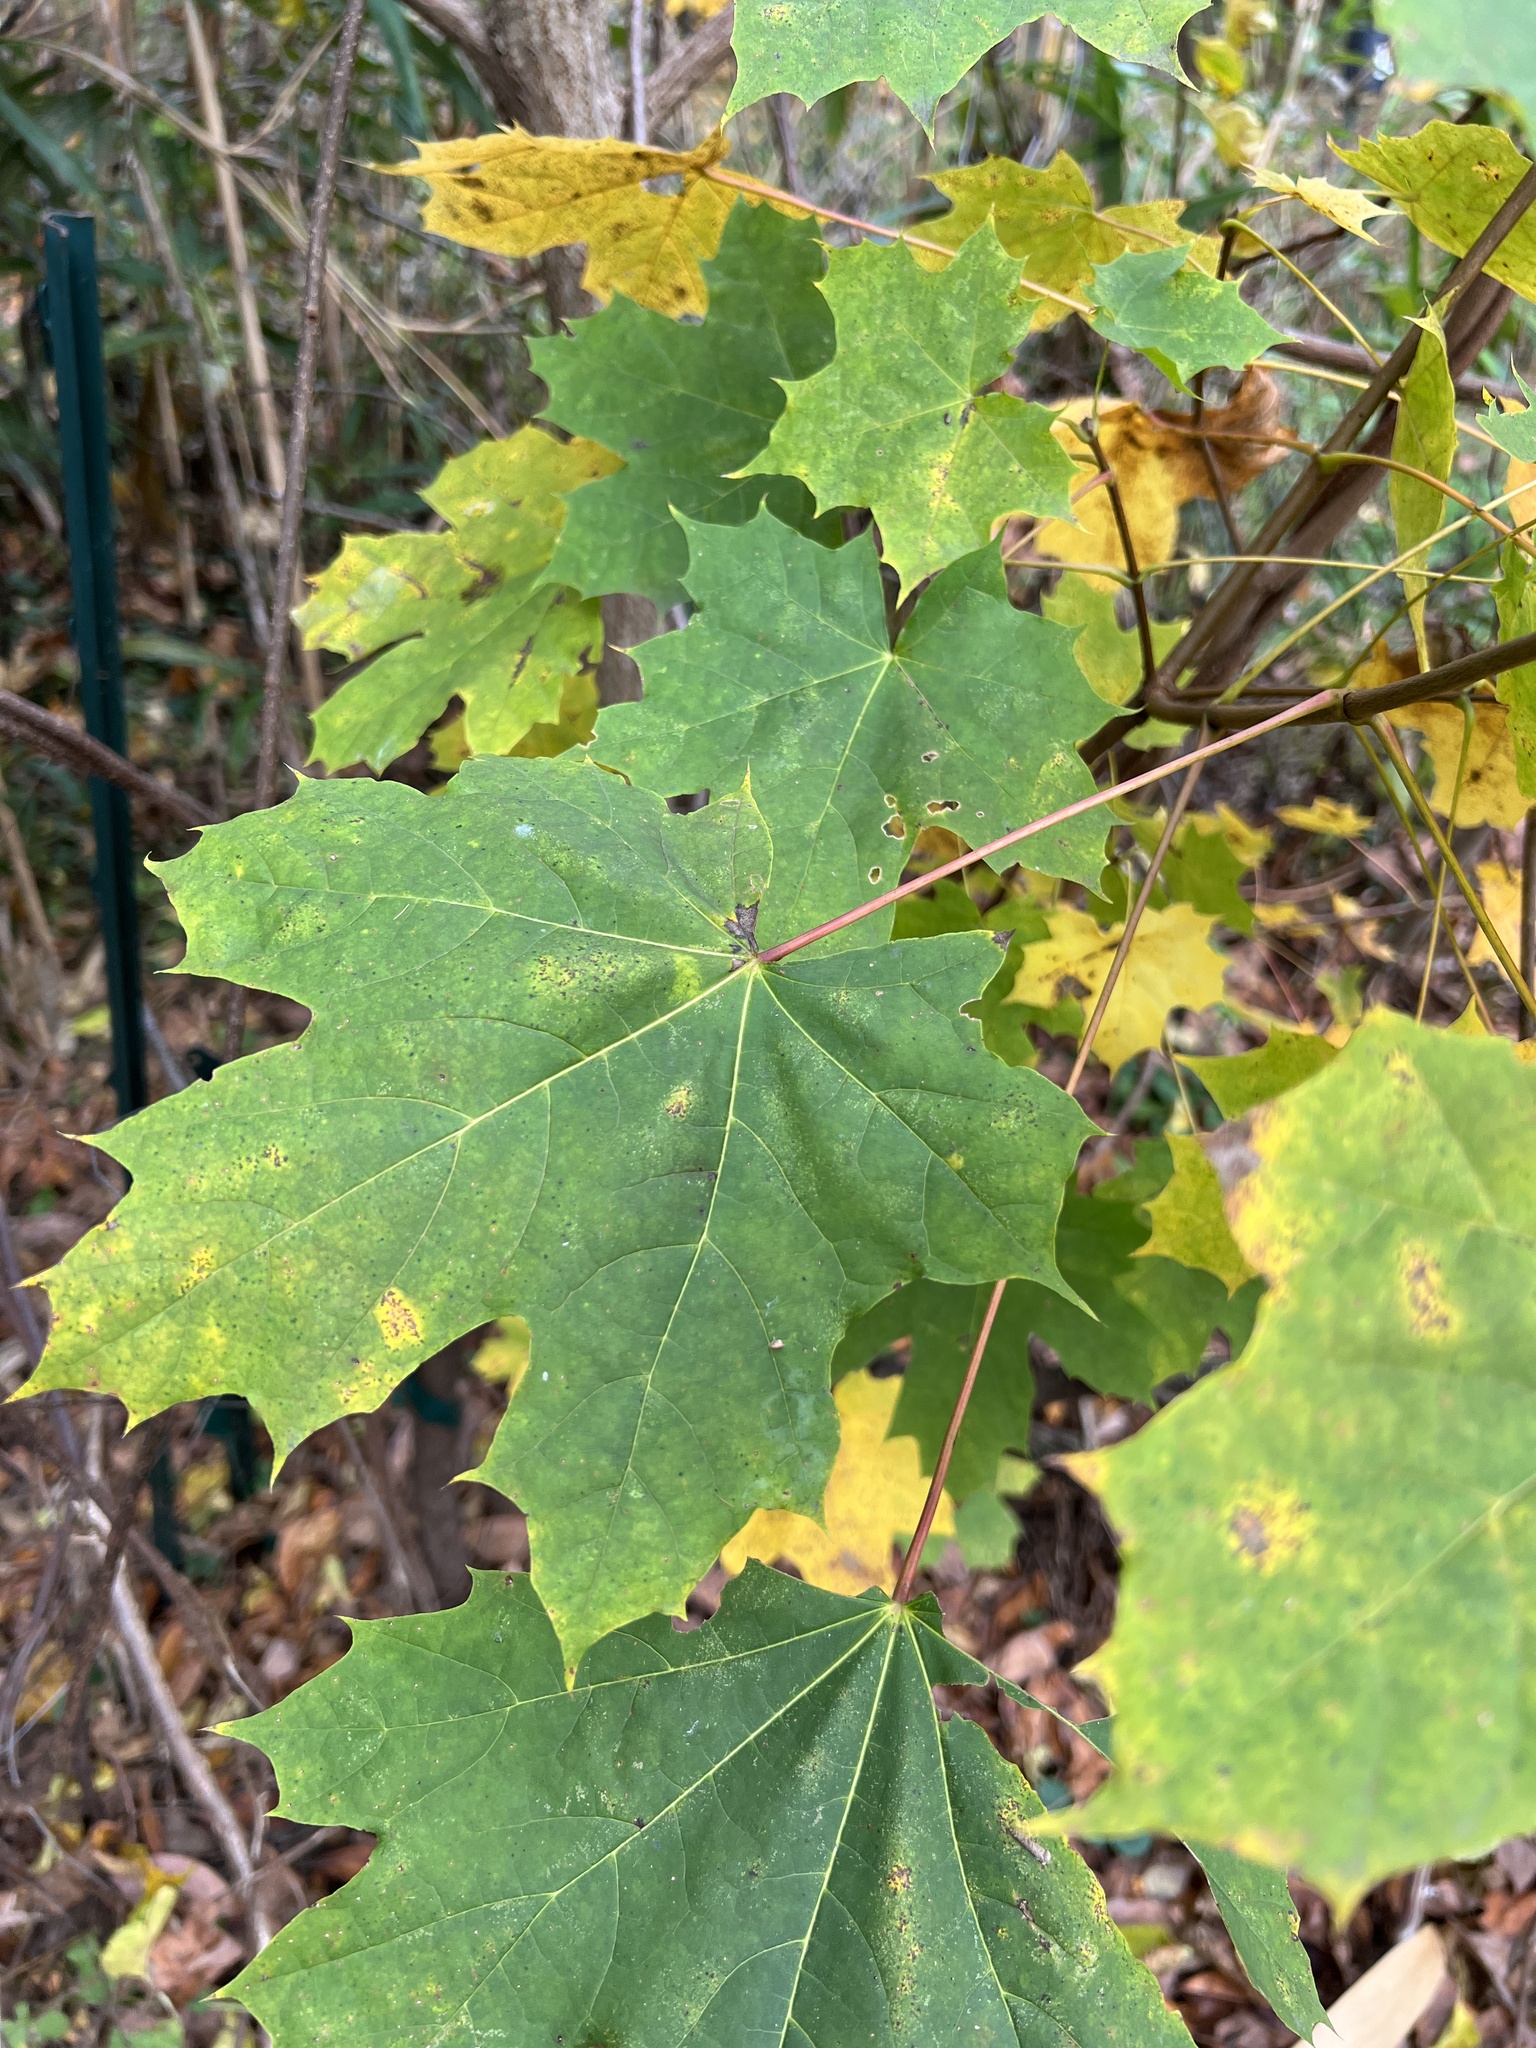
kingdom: Plantae
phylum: Tracheophyta
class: Magnoliopsida
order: Sapindales
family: Sapindaceae
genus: Acer
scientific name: Acer platanoides
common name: Norway maple
